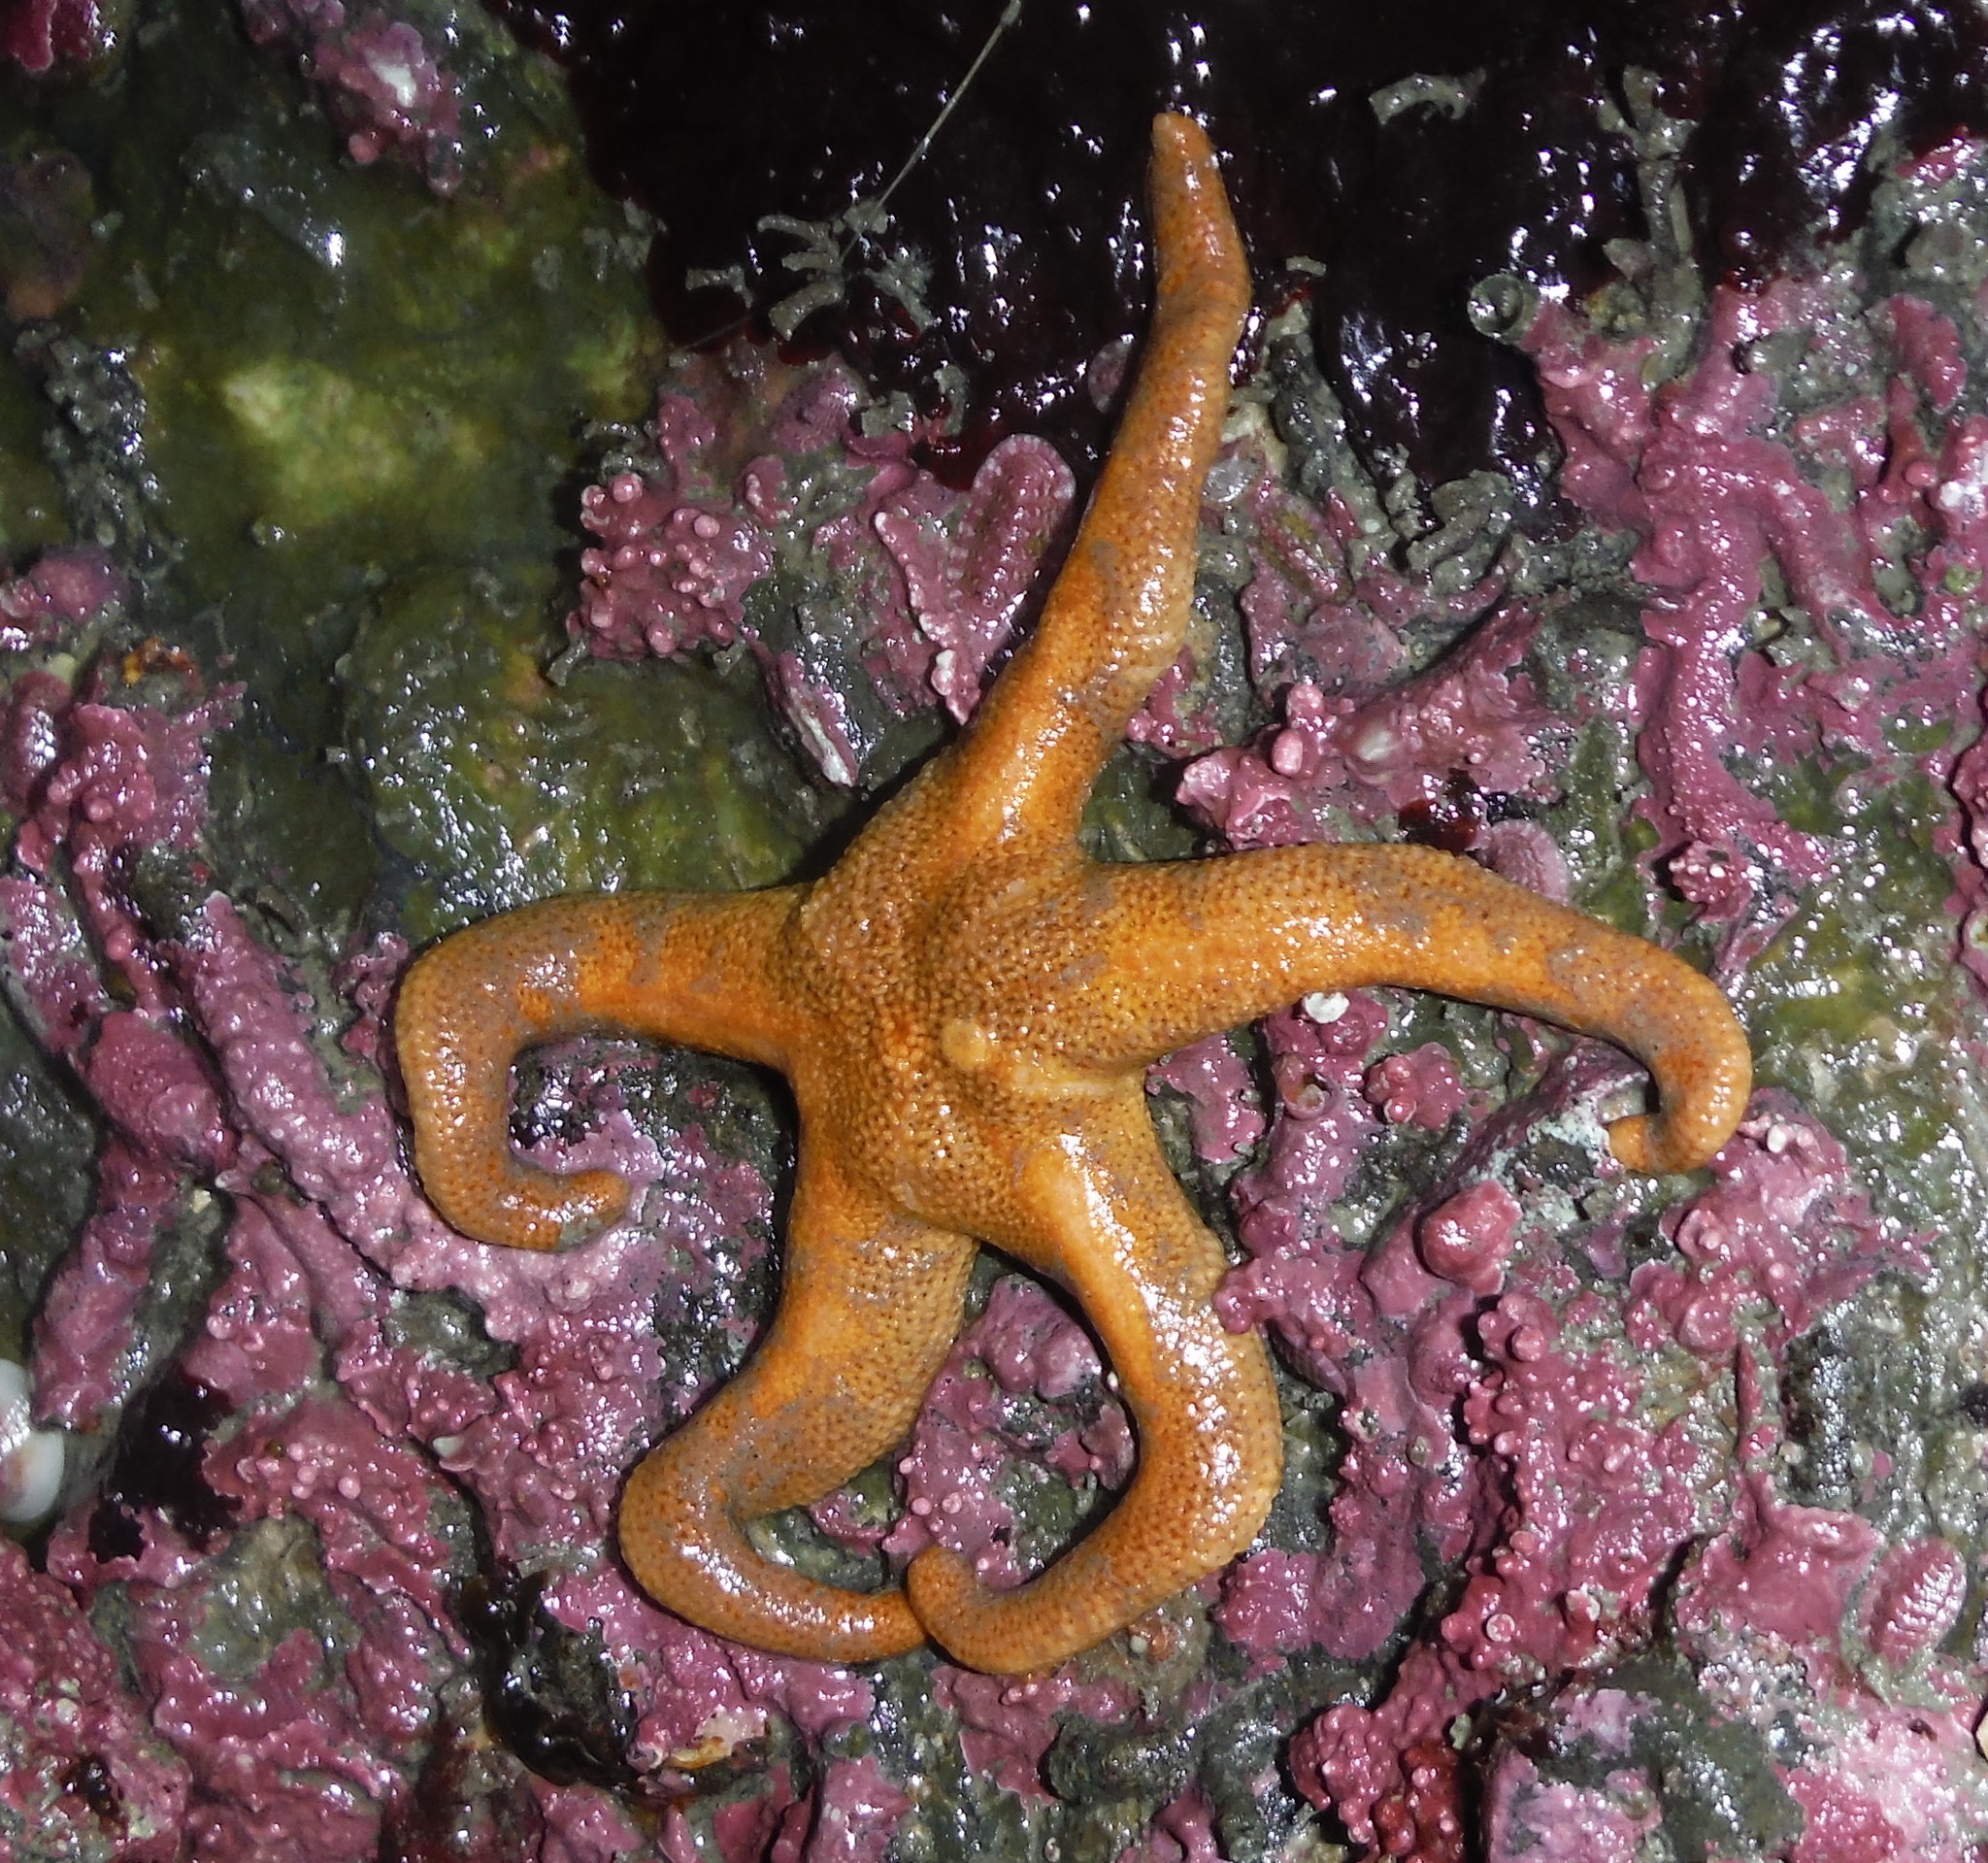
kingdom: Animalia
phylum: Echinodermata
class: Asteroidea
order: Spinulosida
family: Echinasteridae
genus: Henricia
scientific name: Henricia leviuscula
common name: Pacific blood star
